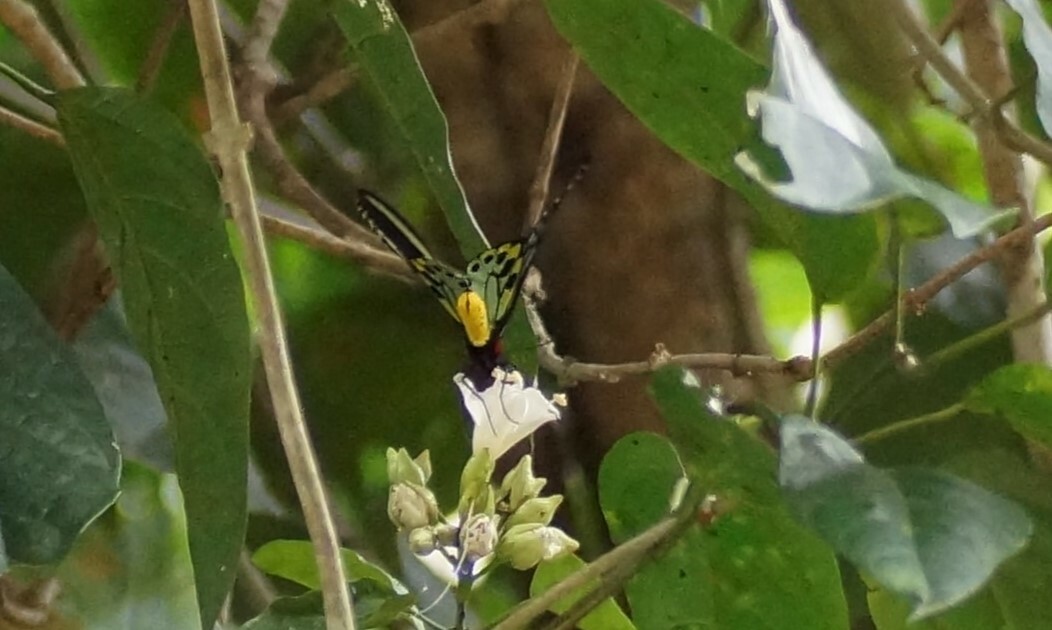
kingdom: Animalia
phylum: Arthropoda
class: Insecta
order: Lepidoptera
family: Papilionidae
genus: Ornithoptera
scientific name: Ornithoptera priamus
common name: Cape york birdwing
